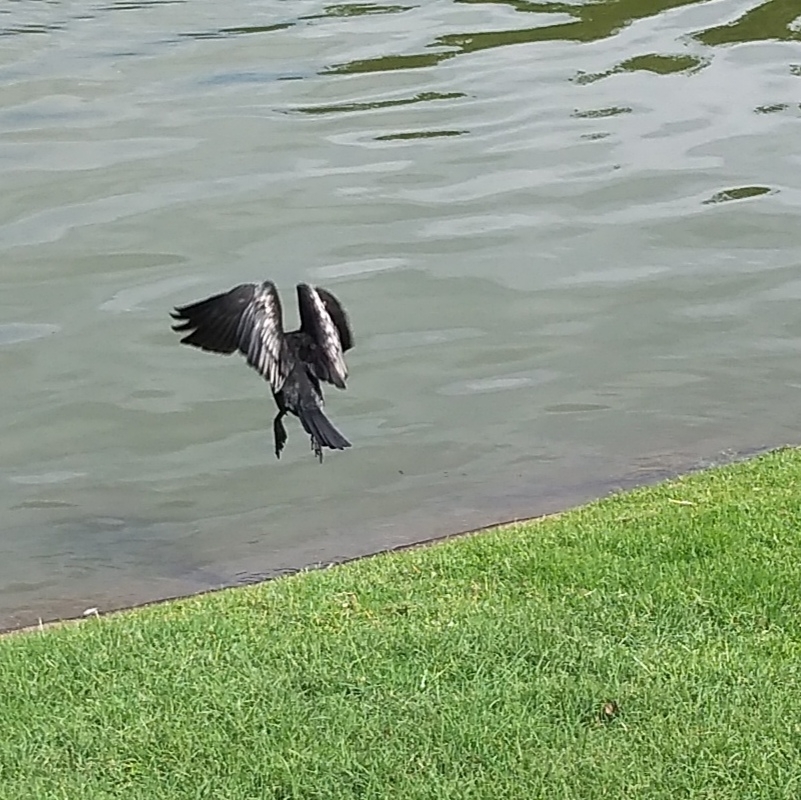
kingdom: Animalia
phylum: Chordata
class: Aves
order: Suliformes
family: Phalacrocoracidae
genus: Microcarbo
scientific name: Microcarbo africanus
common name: Long-tailed cormorant
